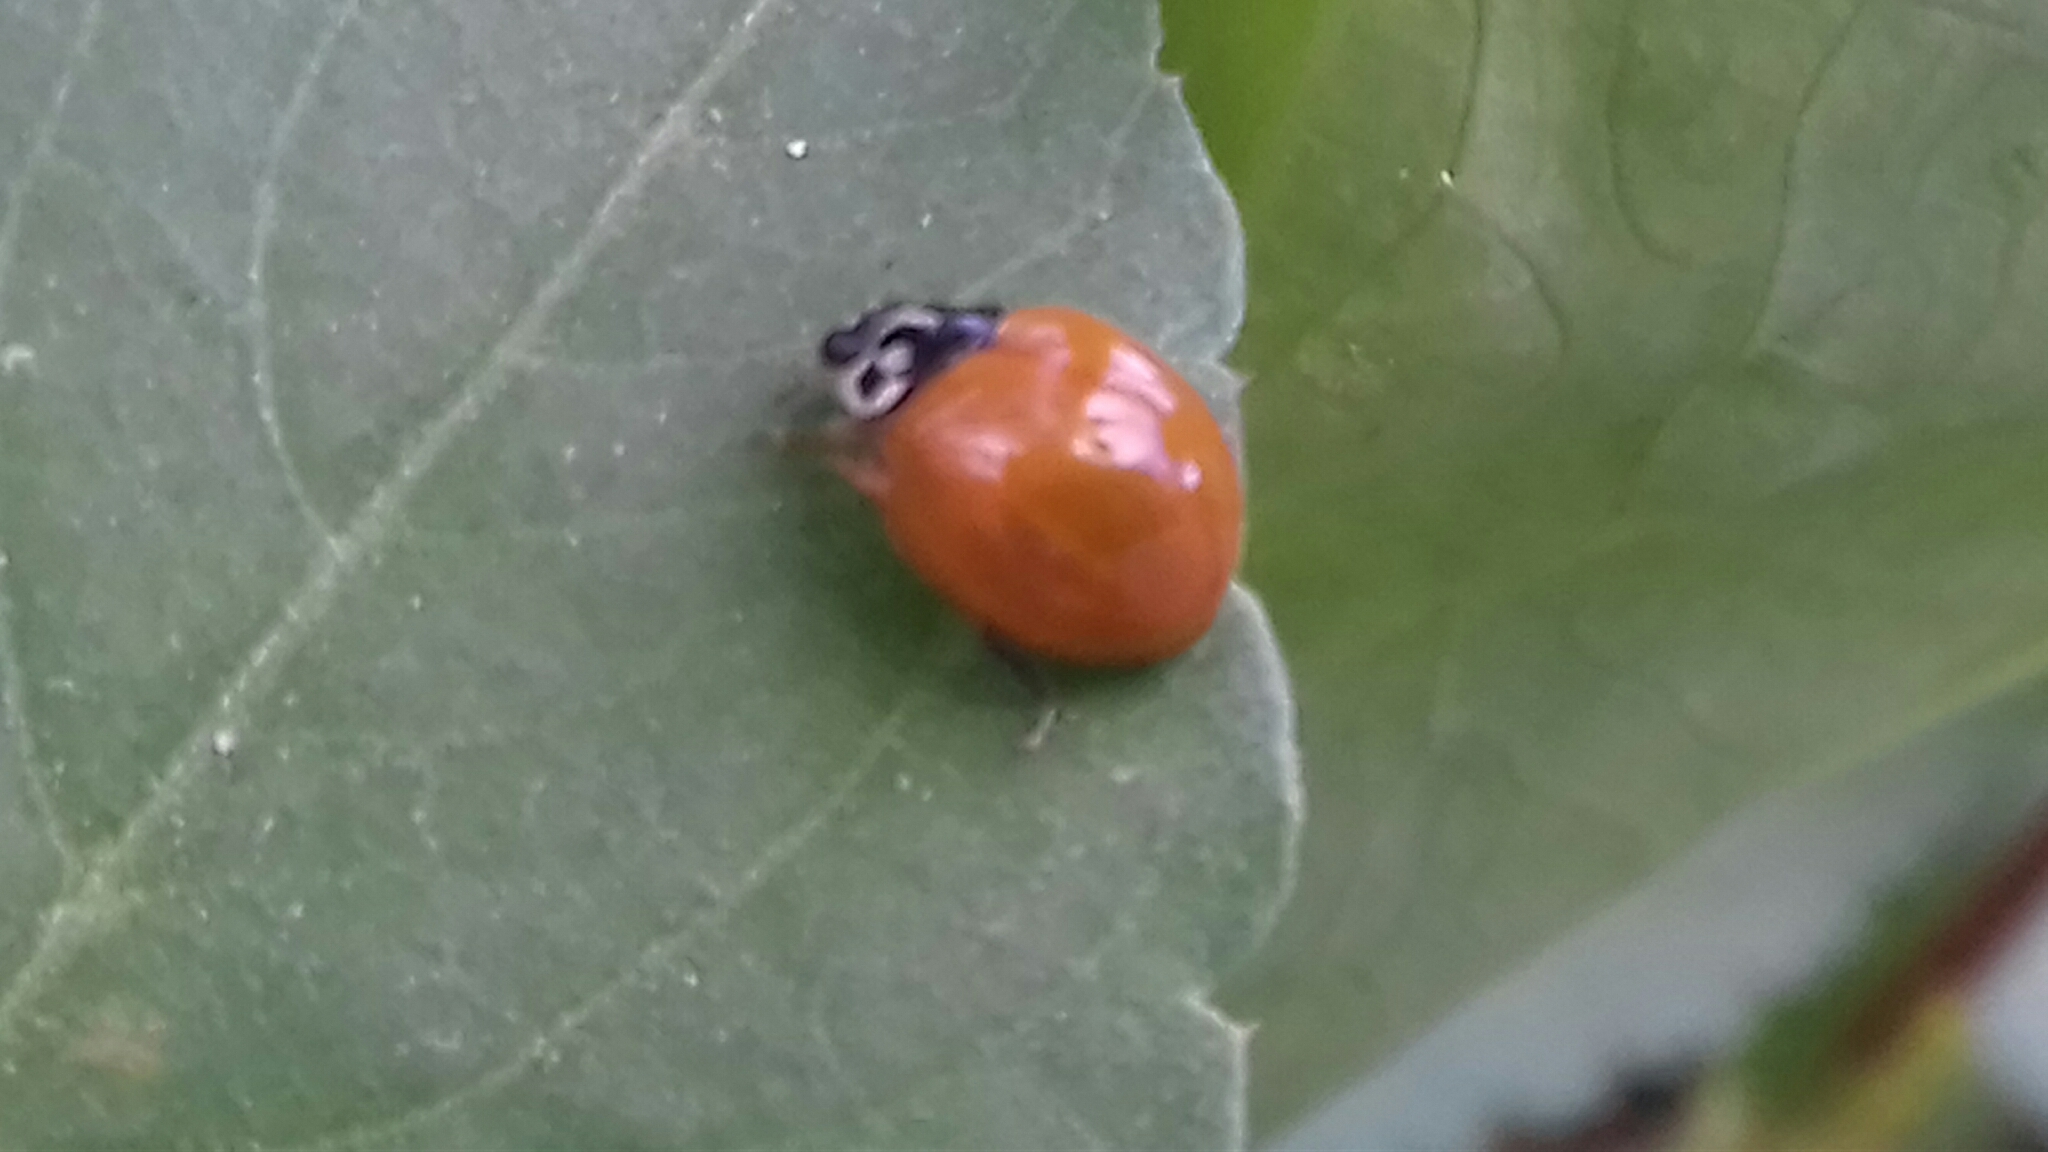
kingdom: Animalia
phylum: Arthropoda
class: Insecta
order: Coleoptera
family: Coccinellidae
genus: Cycloneda
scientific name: Cycloneda sanguinea
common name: Ladybird beetle
